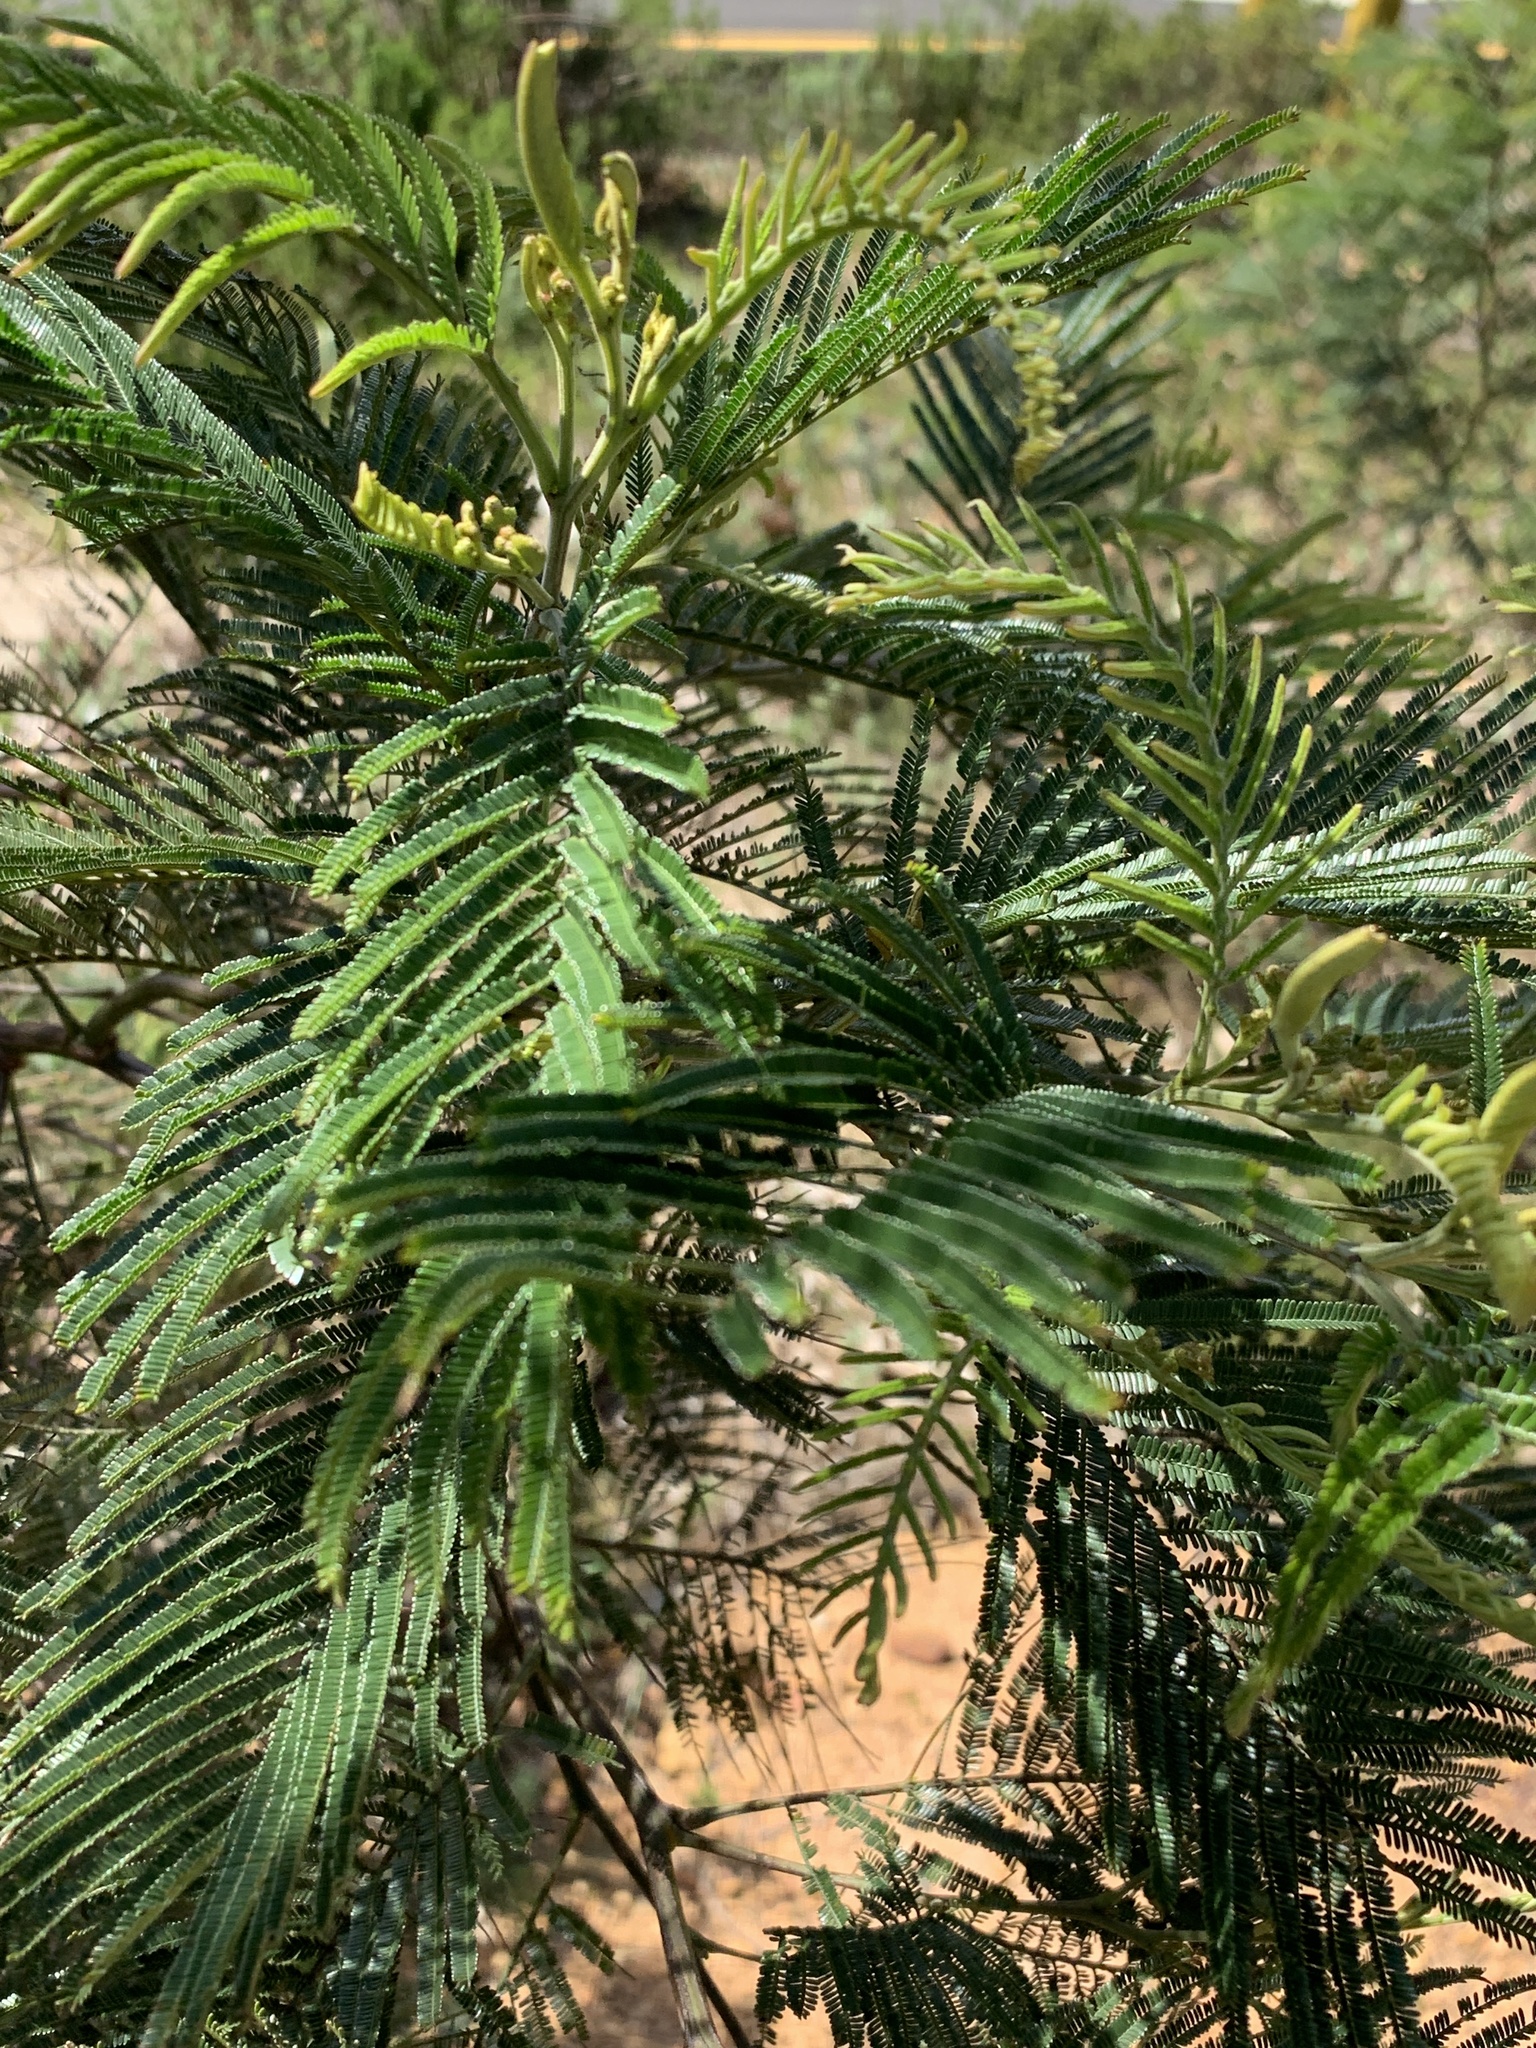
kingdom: Plantae
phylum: Tracheophyta
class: Magnoliopsida
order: Fabales
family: Fabaceae
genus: Acacia
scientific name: Acacia mearnsii
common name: Black wattle
